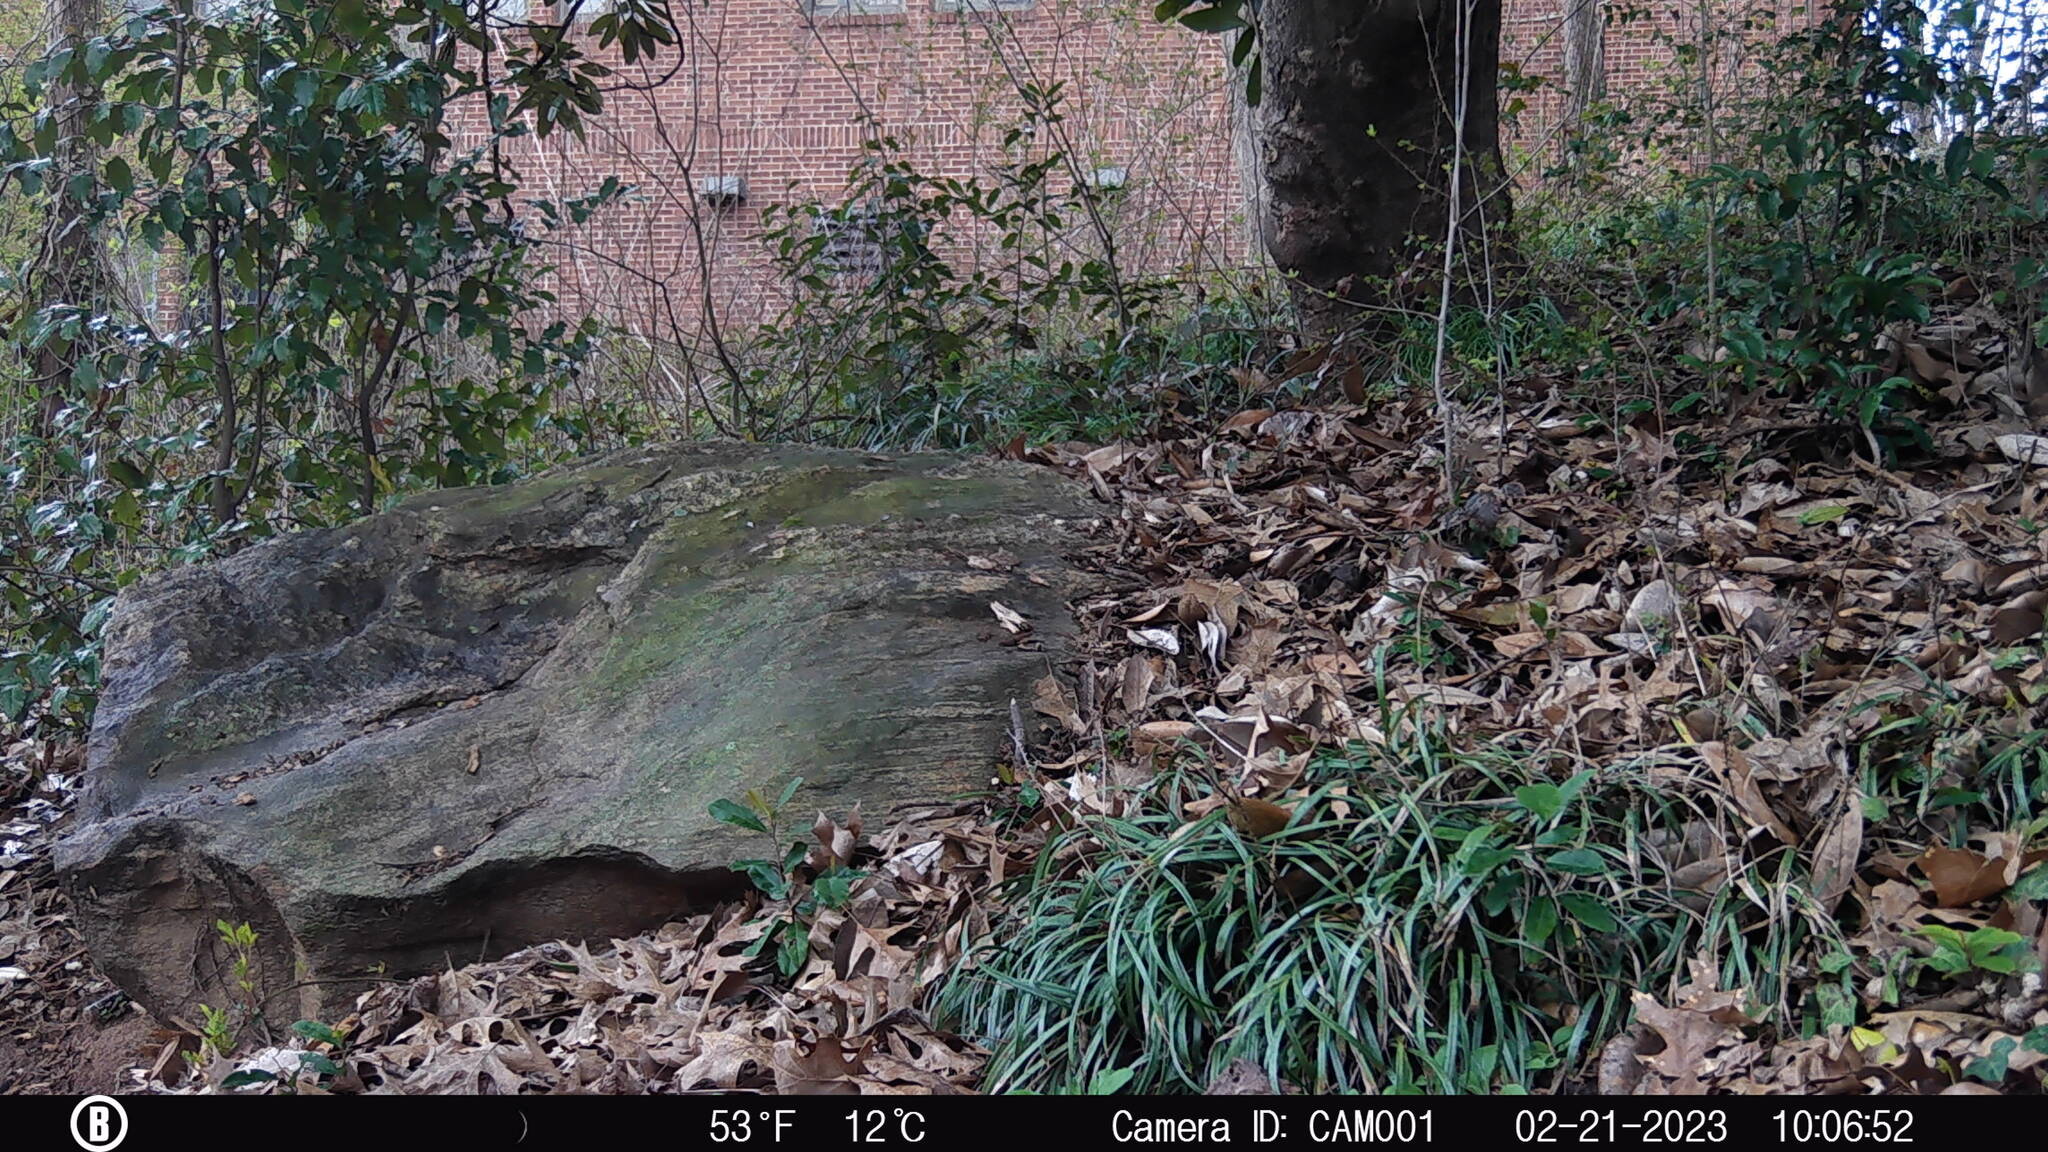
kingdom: Animalia
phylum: Chordata
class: Mammalia
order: Rodentia
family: Sciuridae
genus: Sciurus
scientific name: Sciurus carolinensis
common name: Eastern gray squirrel
